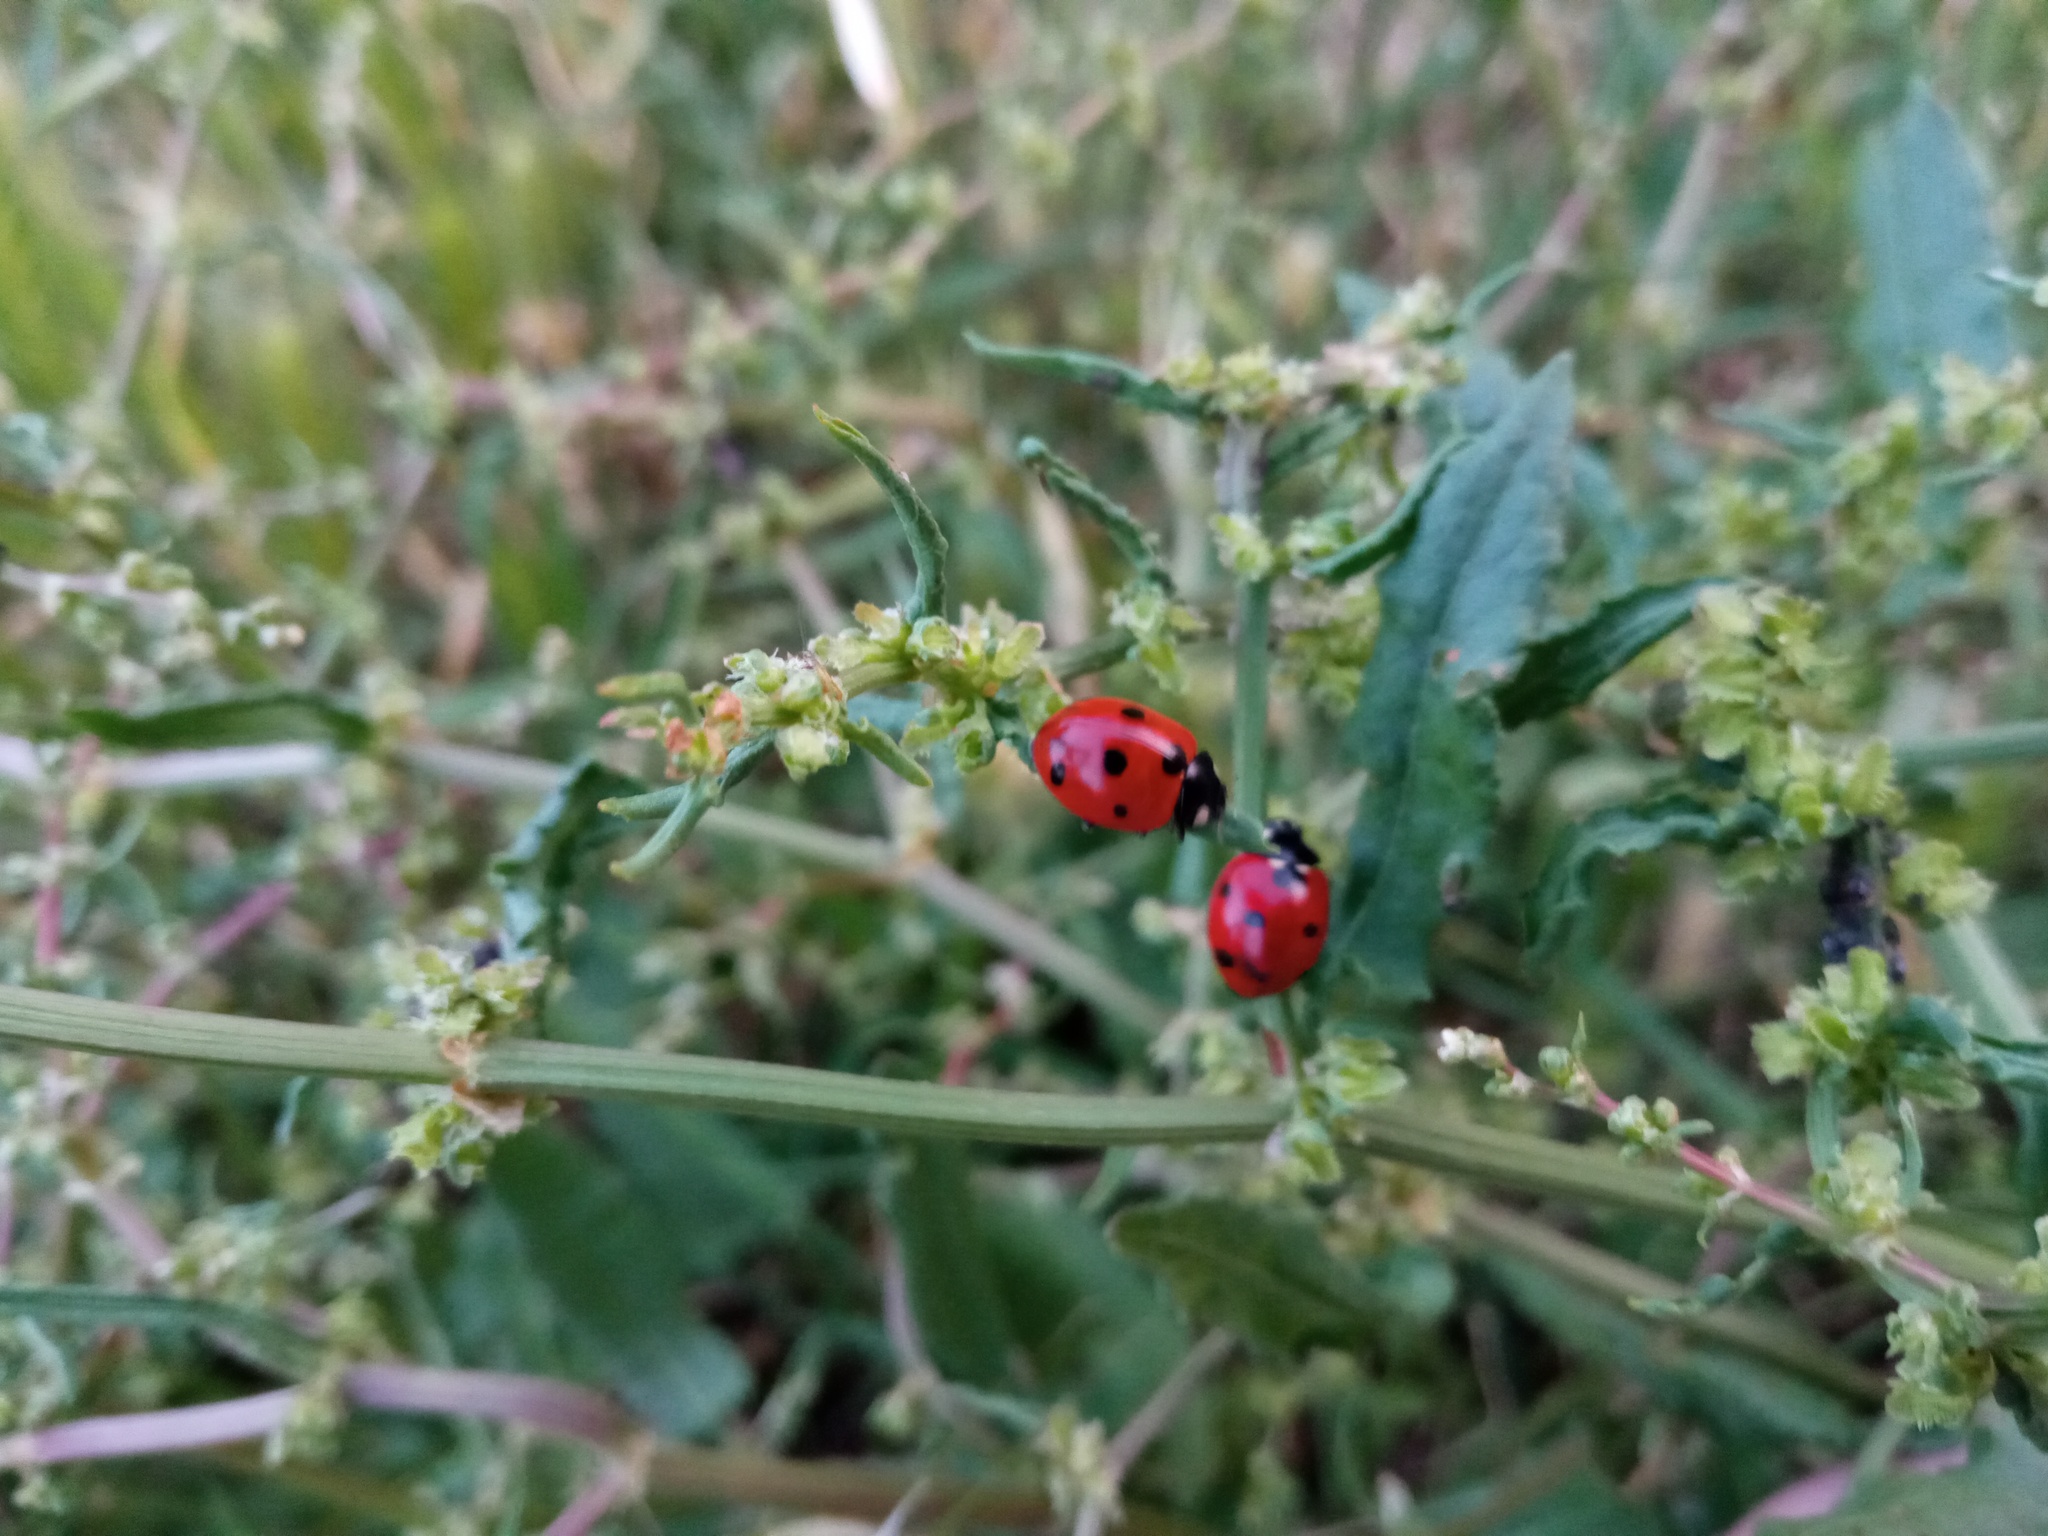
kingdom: Animalia
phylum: Arthropoda
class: Insecta
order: Coleoptera
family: Coccinellidae
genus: Coccinella
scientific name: Coccinella septempunctata
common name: Sevenspotted lady beetle
